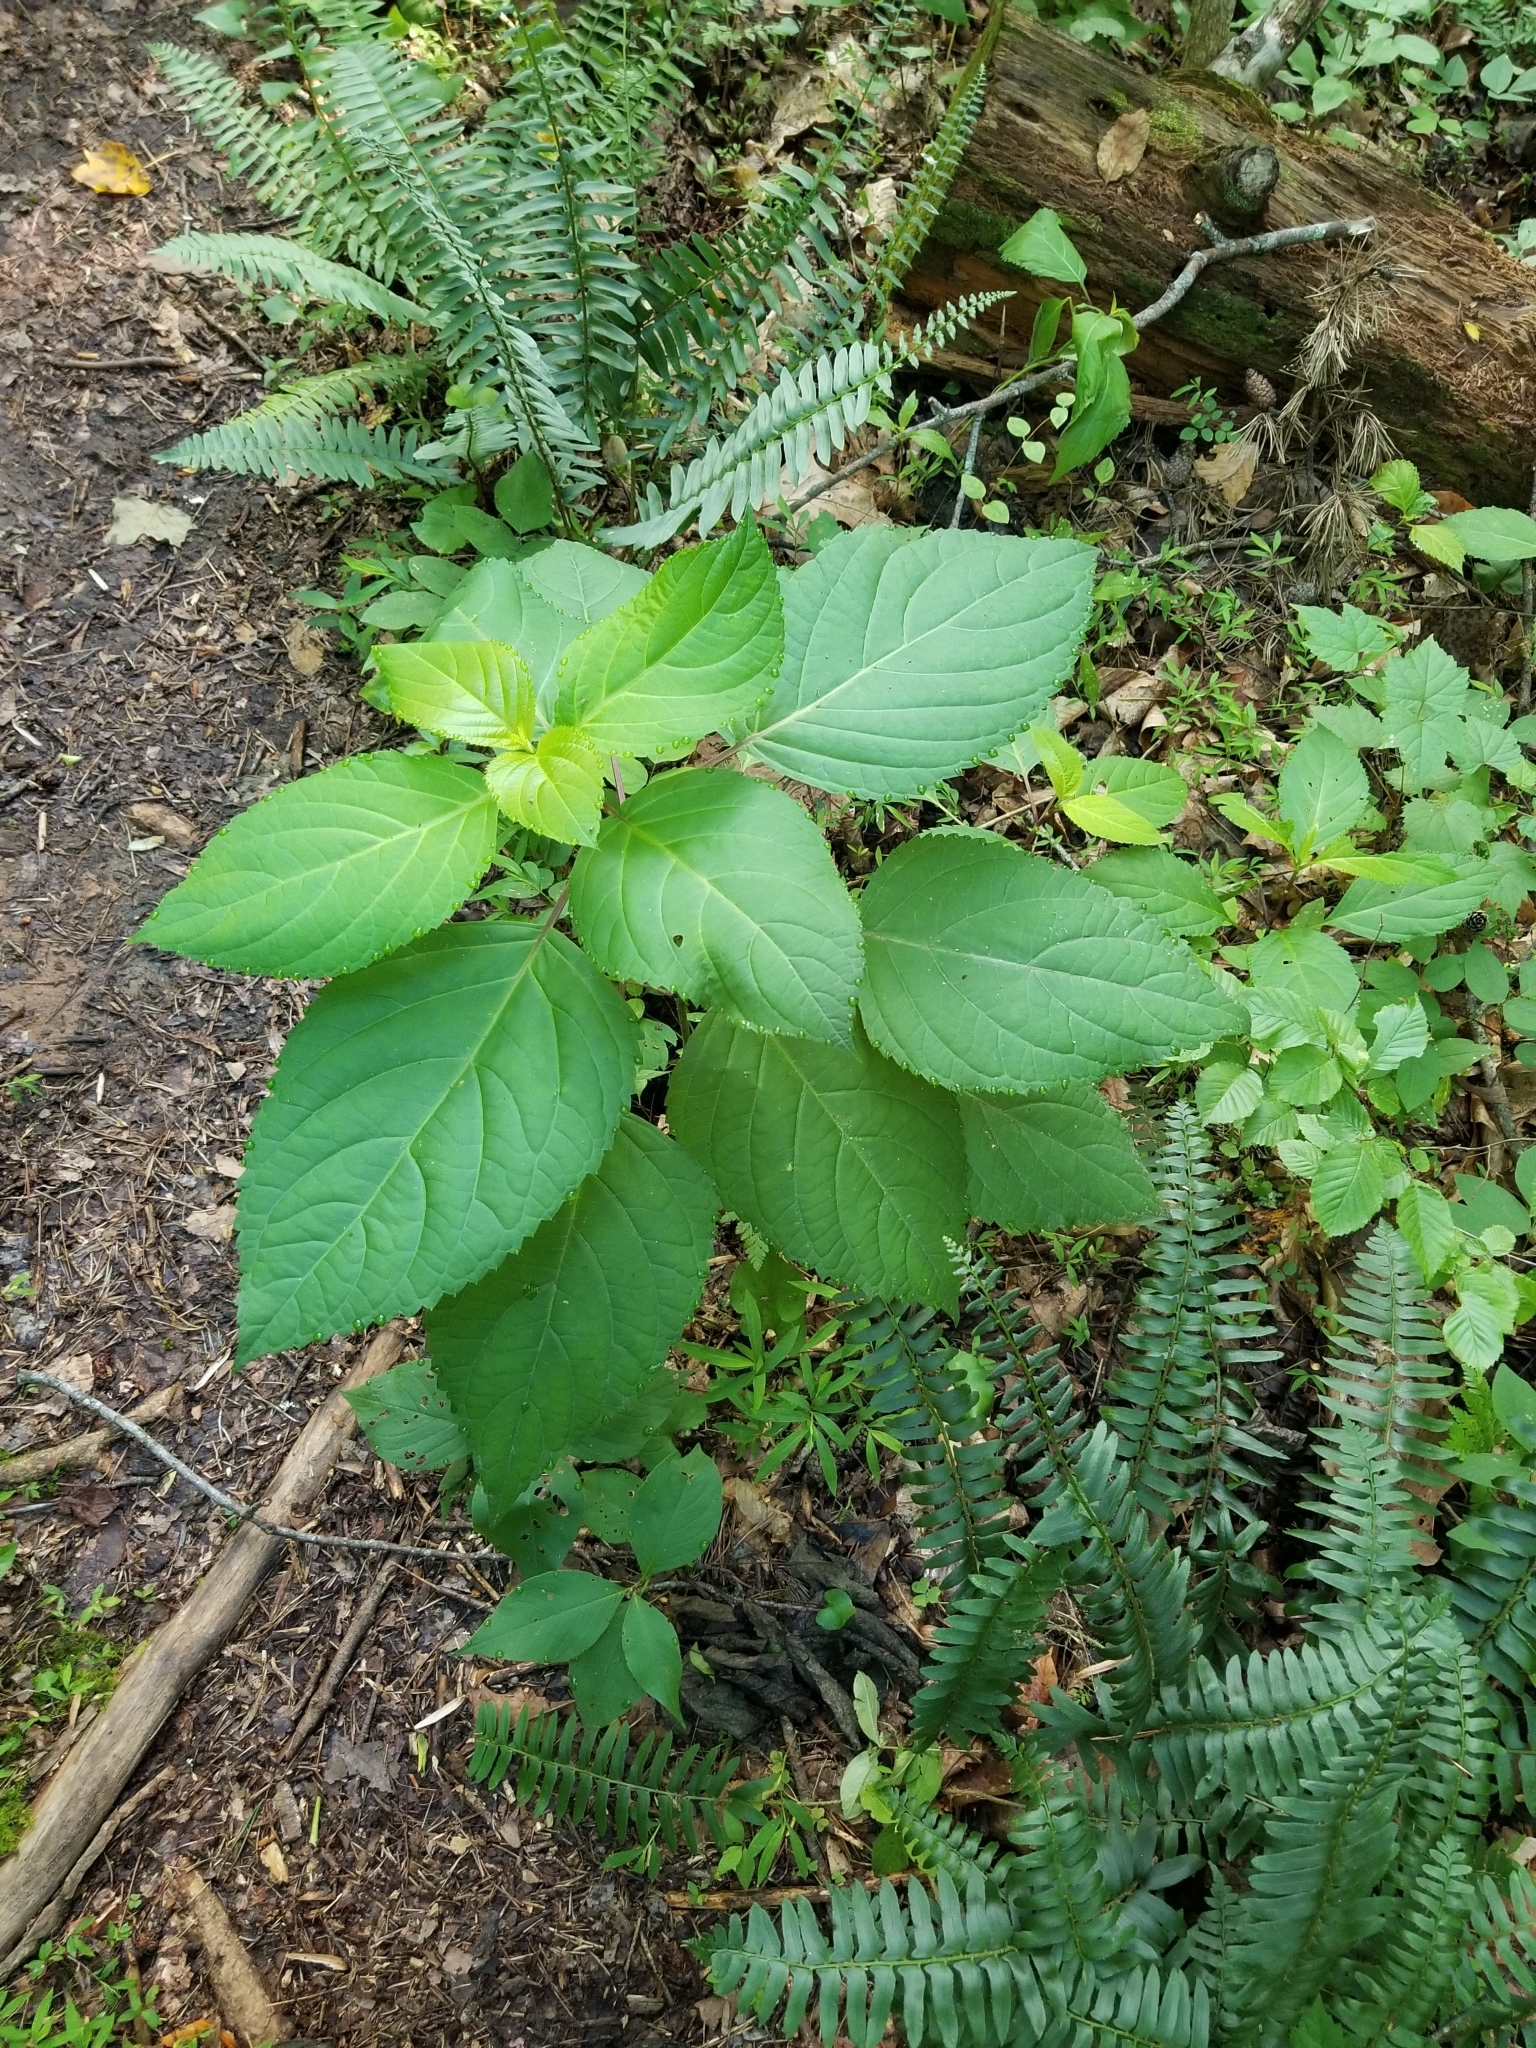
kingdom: Plantae
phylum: Tracheophyta
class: Magnoliopsida
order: Lamiales
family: Lamiaceae
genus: Collinsonia
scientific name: Collinsonia canadensis
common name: Northern horsebalm
